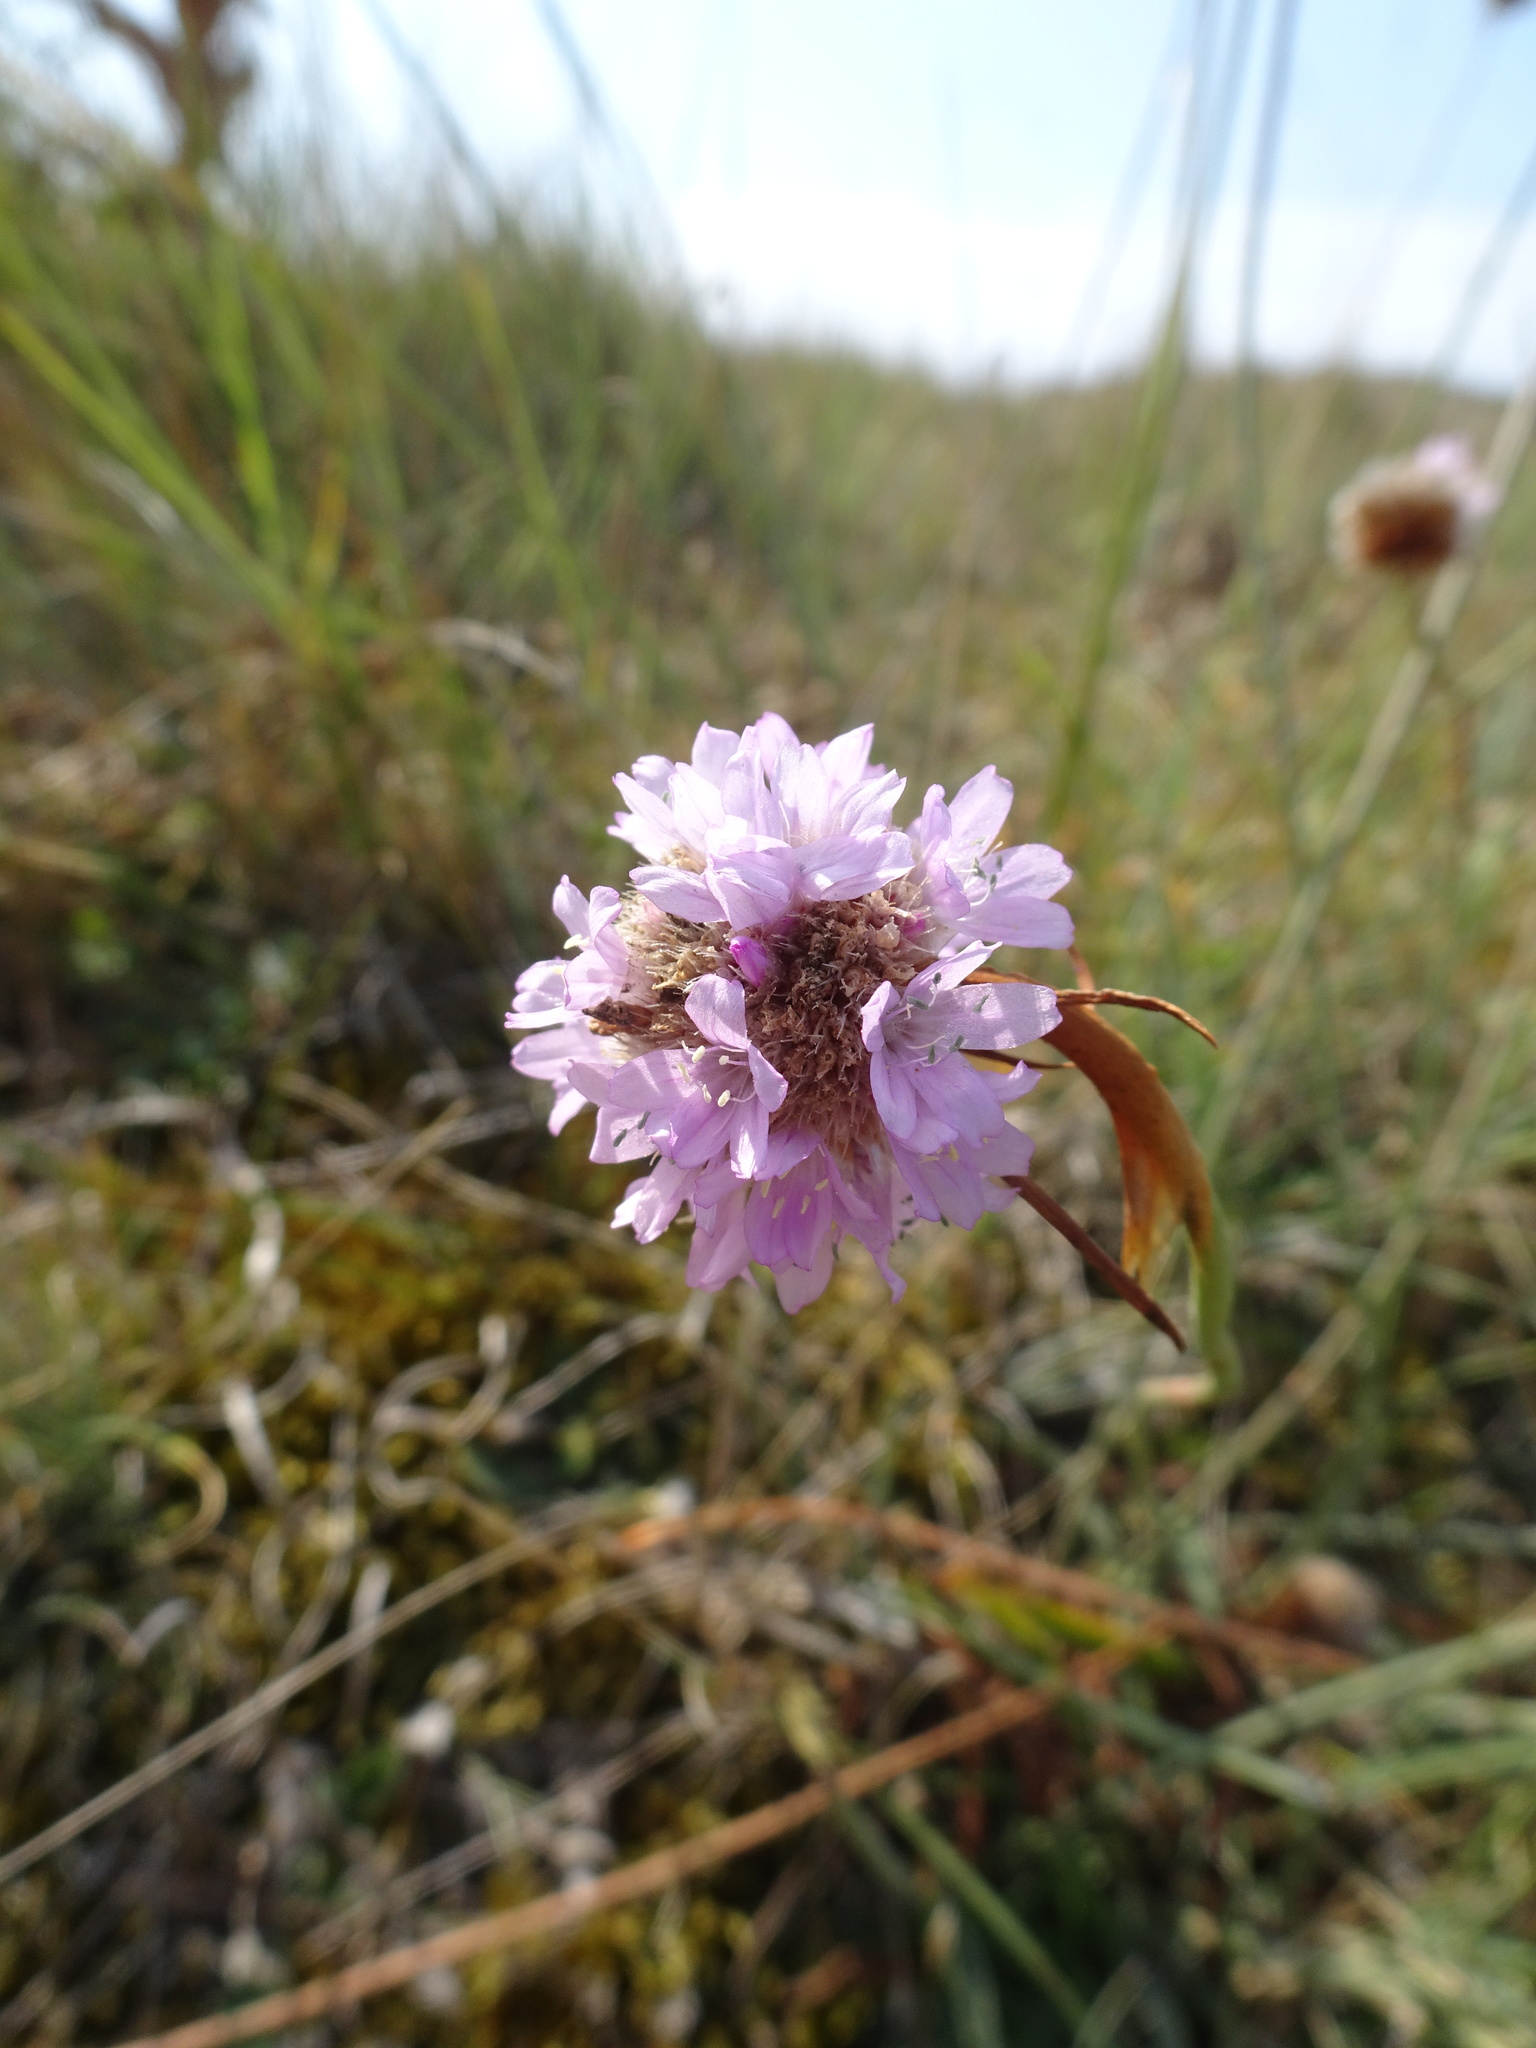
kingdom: Plantae
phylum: Tracheophyta
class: Magnoliopsida
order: Caryophyllales
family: Plumbaginaceae
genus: Armeria
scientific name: Armeria maritima
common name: Thrift
